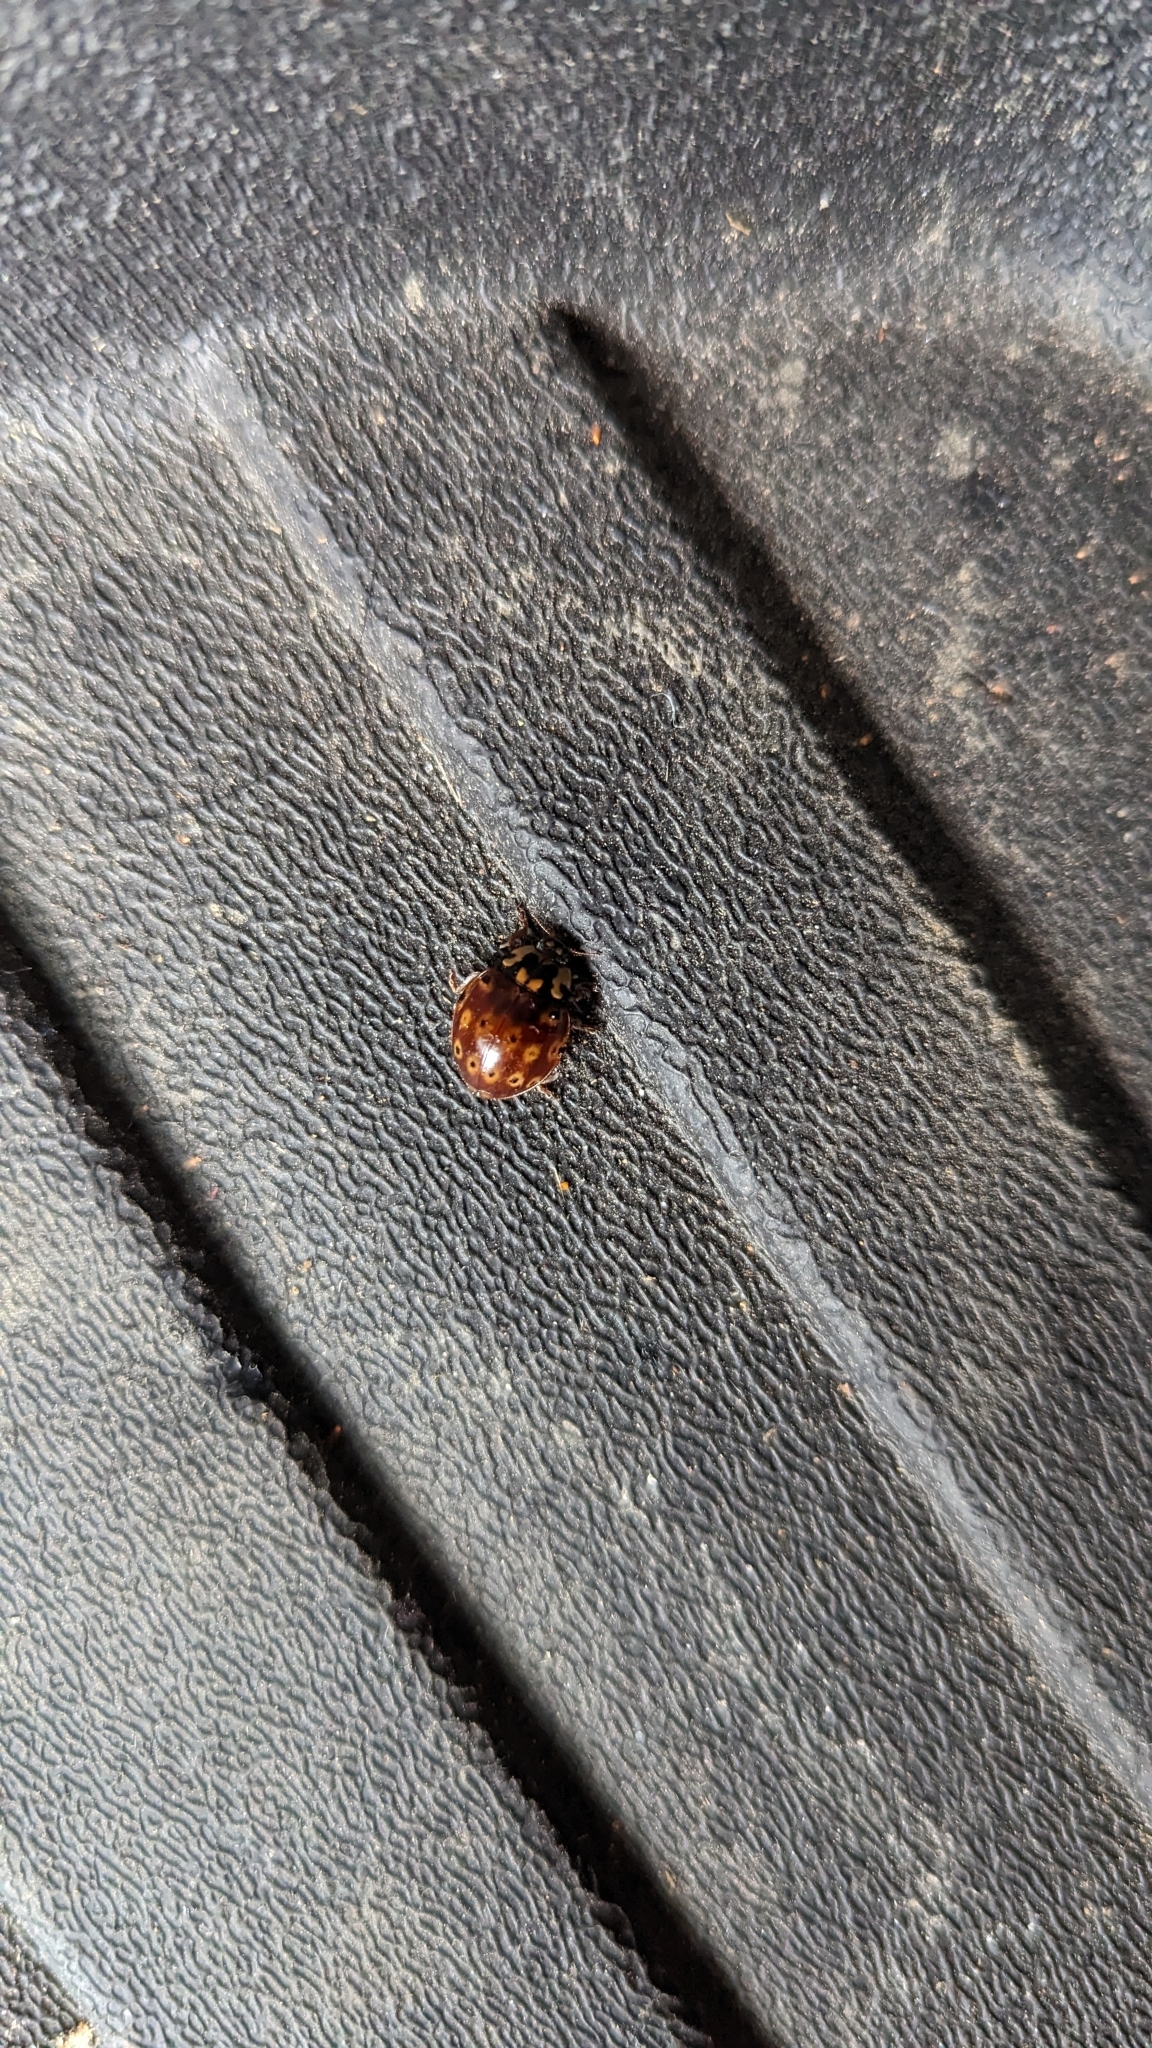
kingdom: Animalia
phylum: Arthropoda
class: Insecta
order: Coleoptera
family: Coccinellidae
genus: Anatis
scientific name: Anatis mali
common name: Eye-spotted lady beetle
